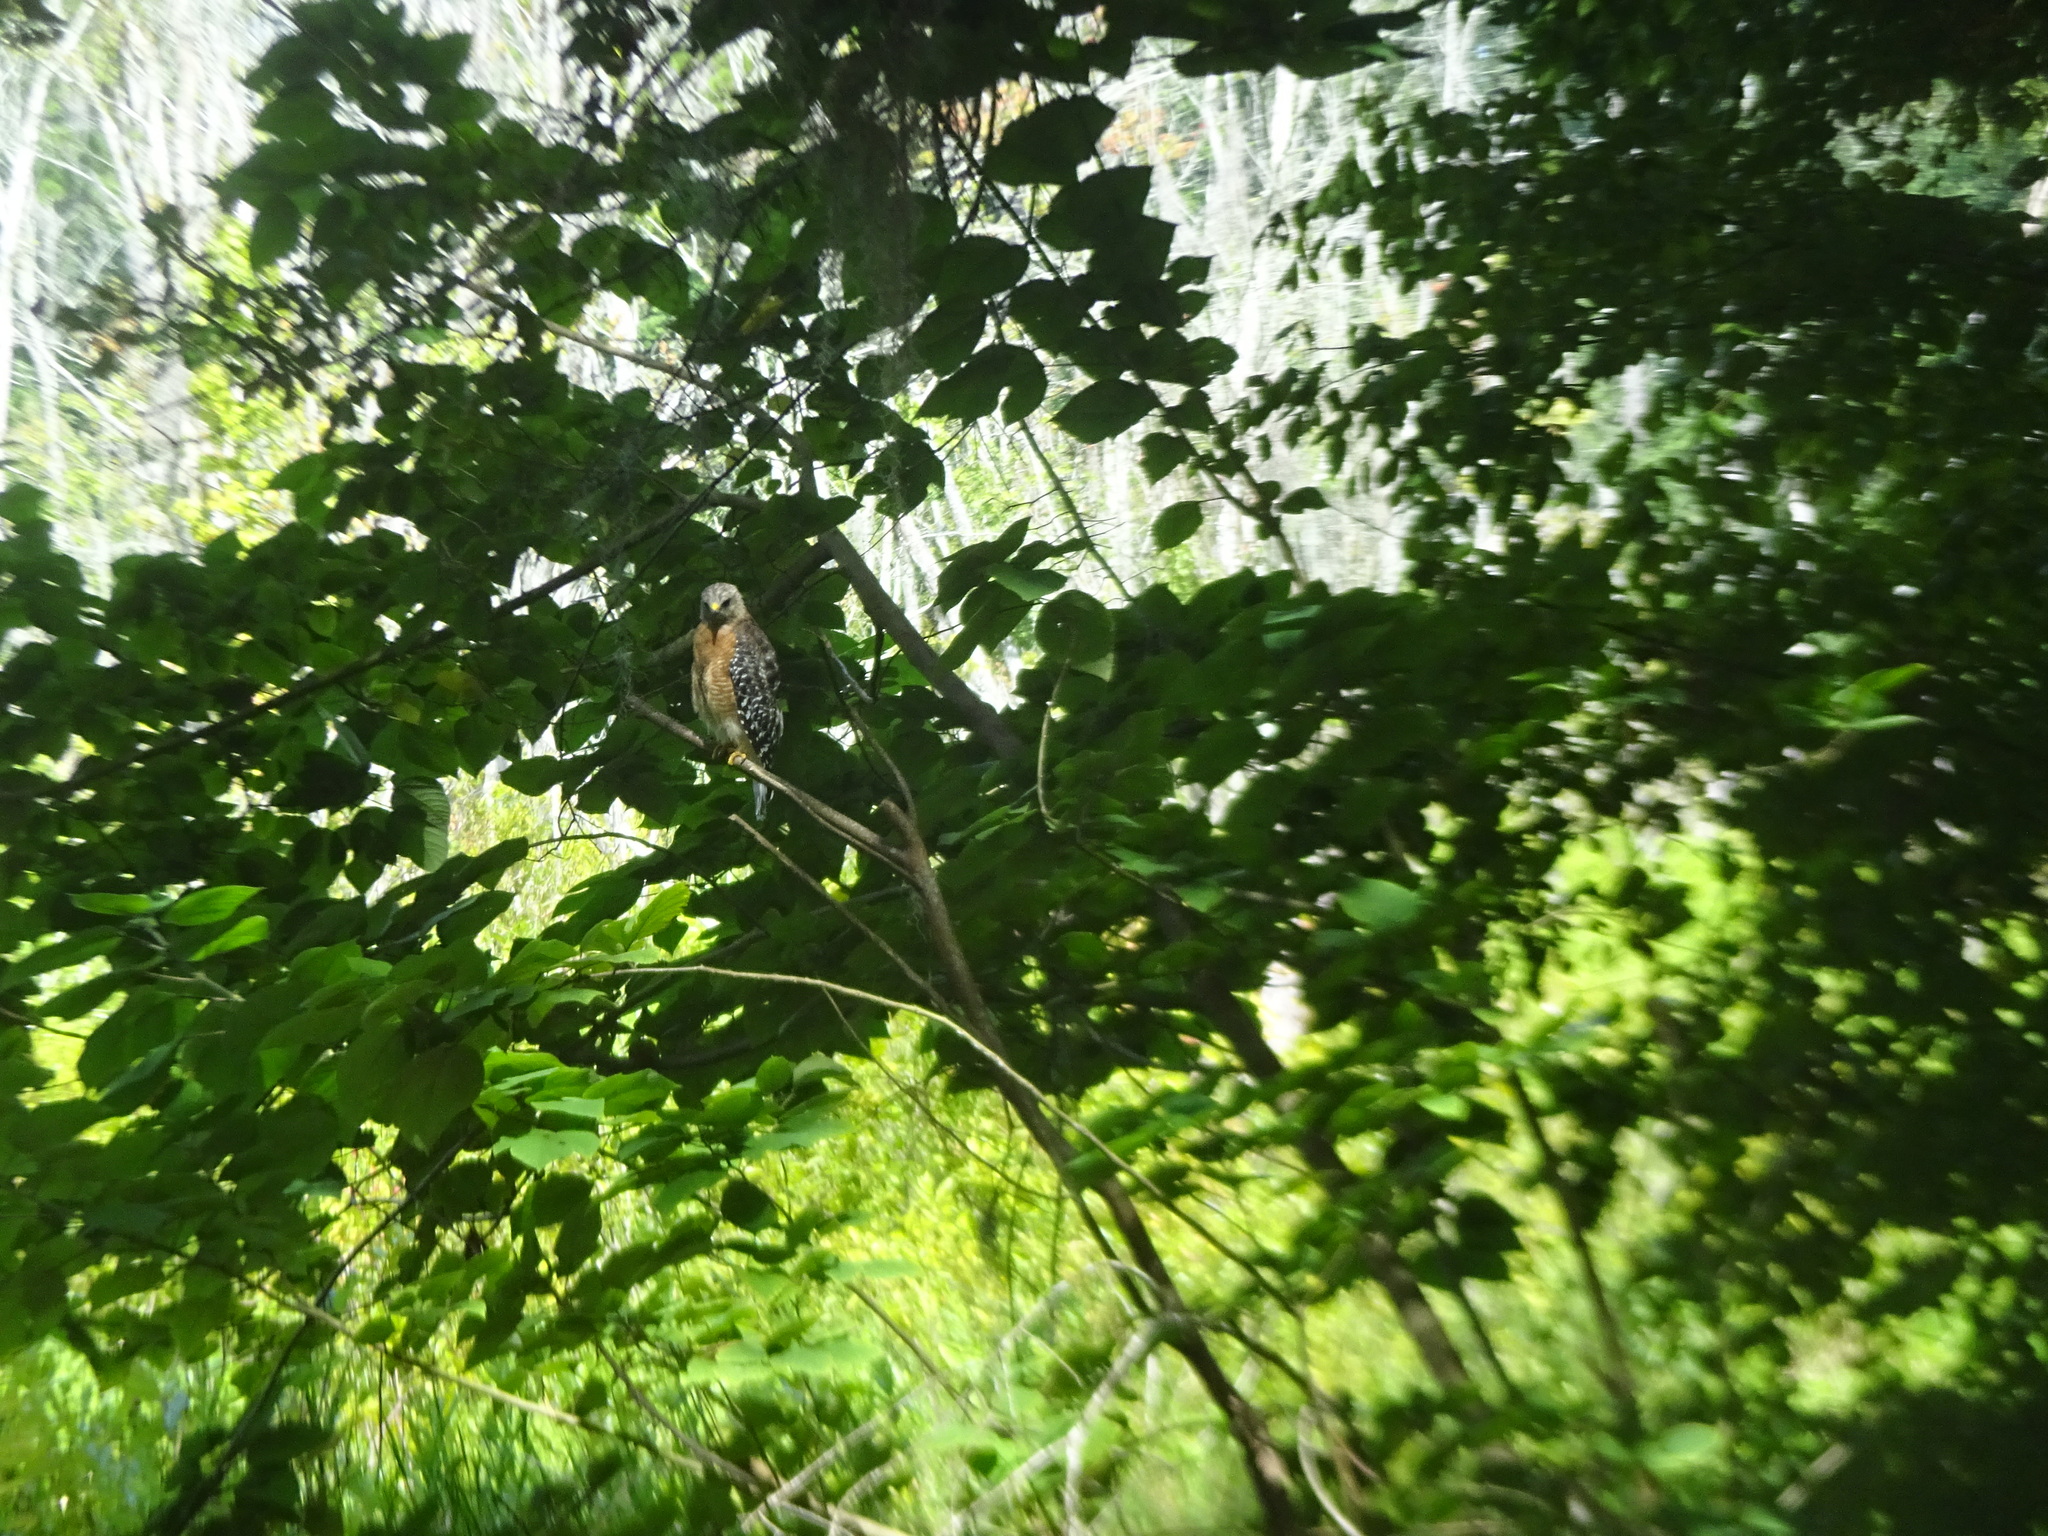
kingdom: Animalia
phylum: Chordata
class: Aves
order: Accipitriformes
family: Accipitridae
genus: Buteo
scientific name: Buteo lineatus
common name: Red-shouldered hawk
